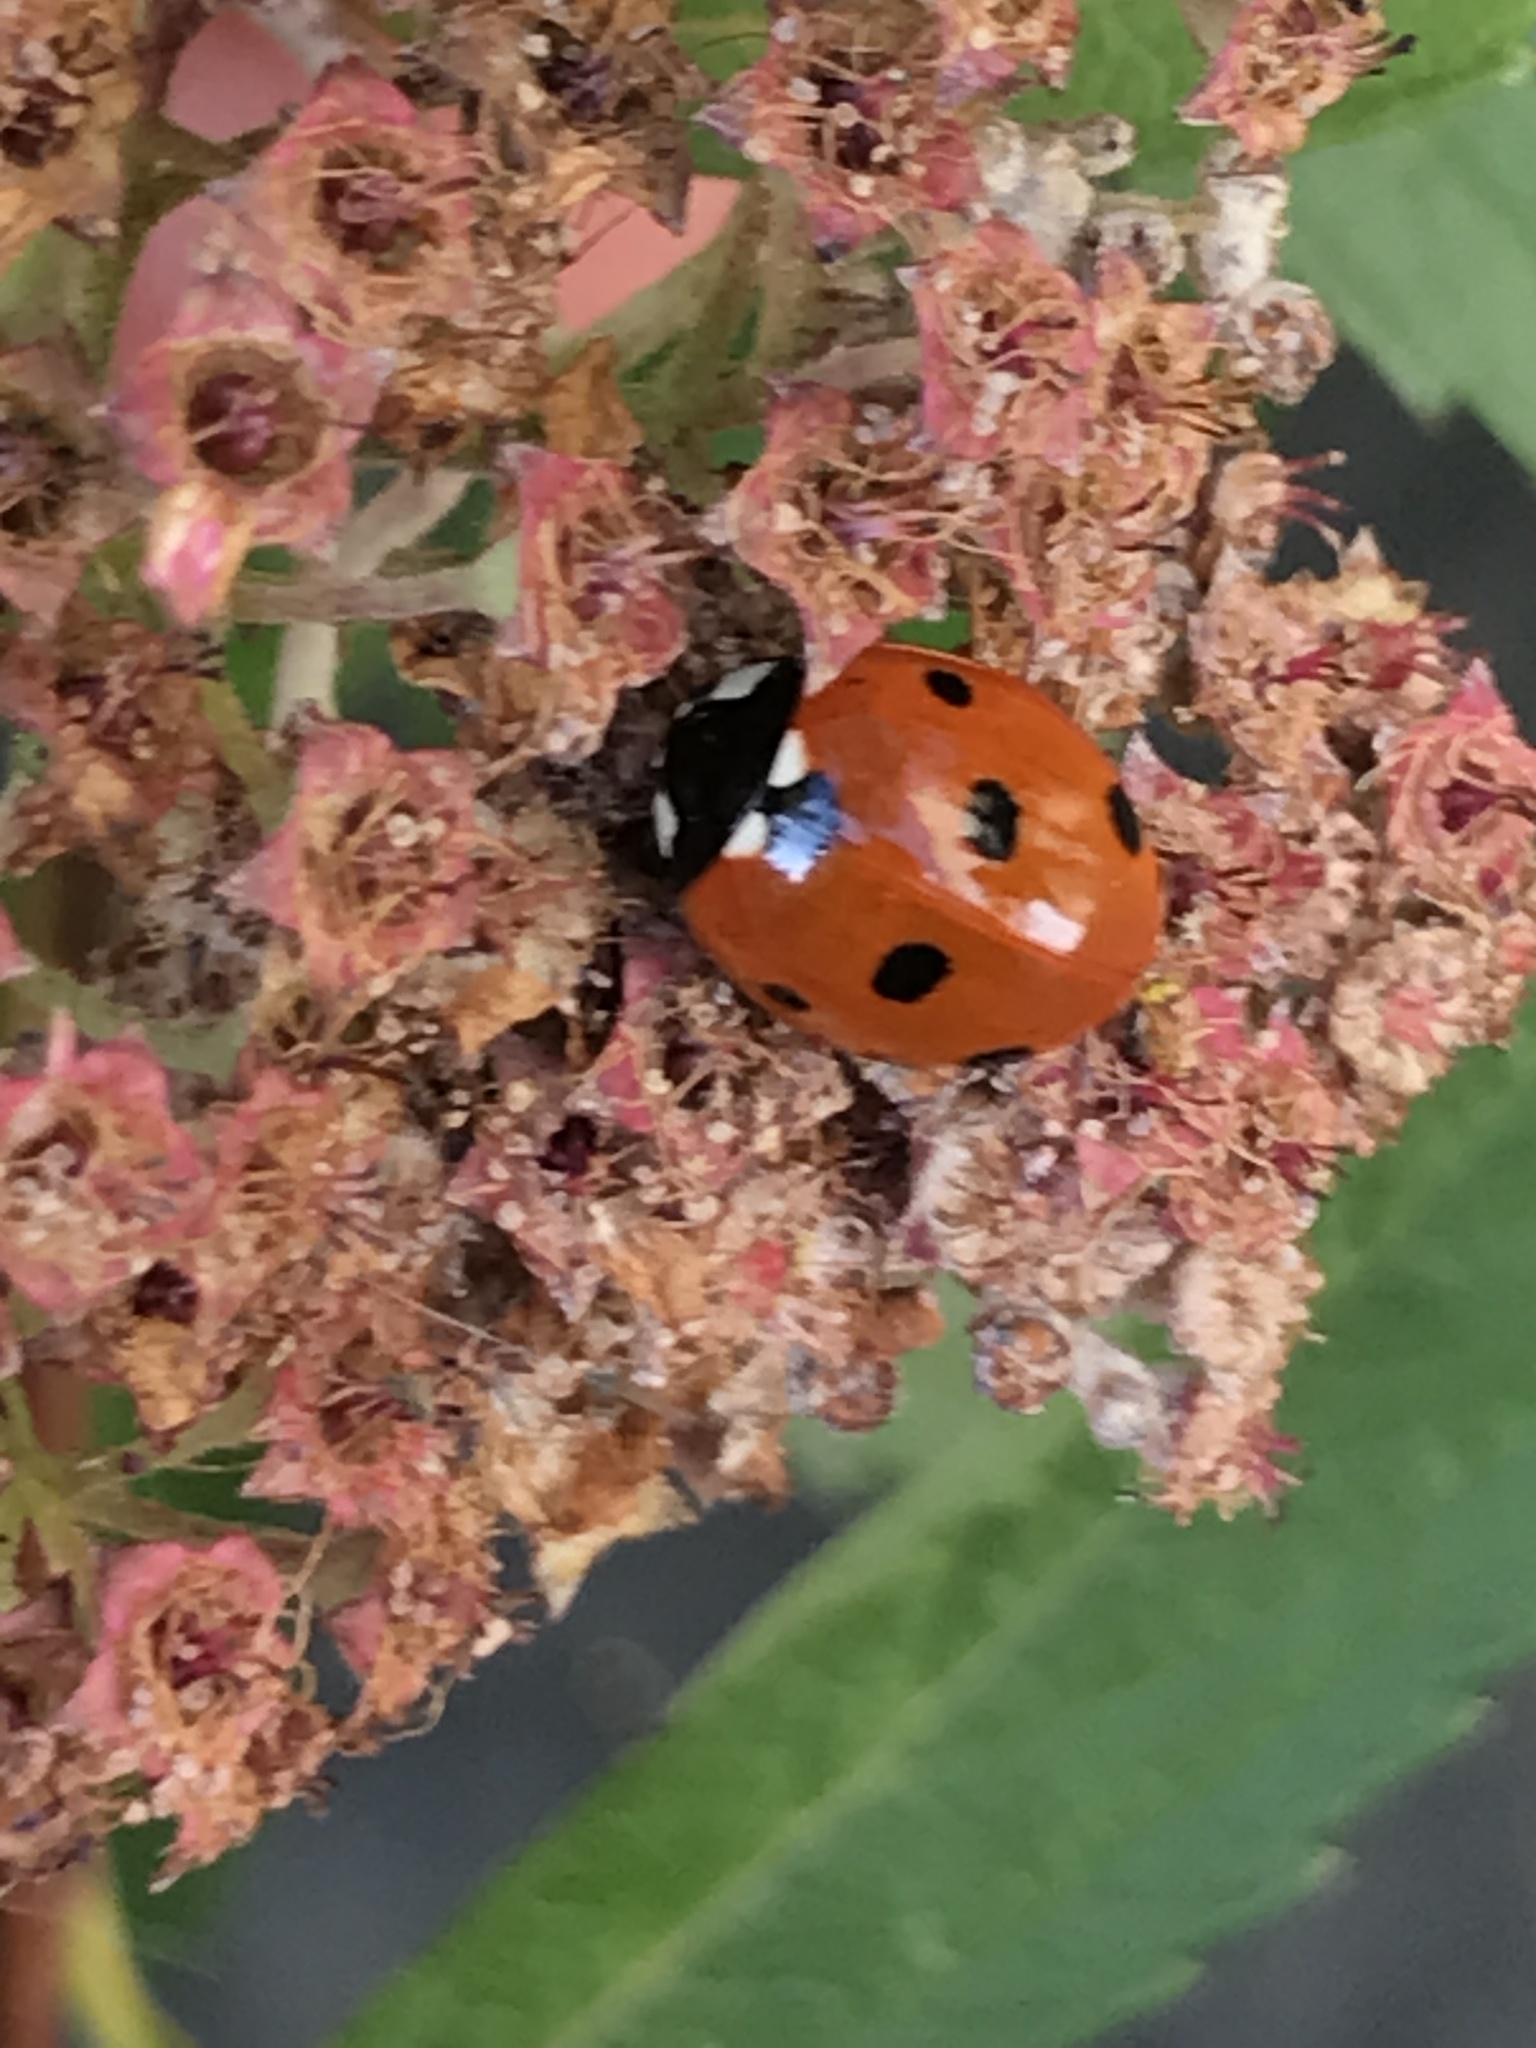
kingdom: Animalia
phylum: Arthropoda
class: Insecta
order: Coleoptera
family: Coccinellidae
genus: Coccinella
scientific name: Coccinella septempunctata
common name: Sevenspotted lady beetle
